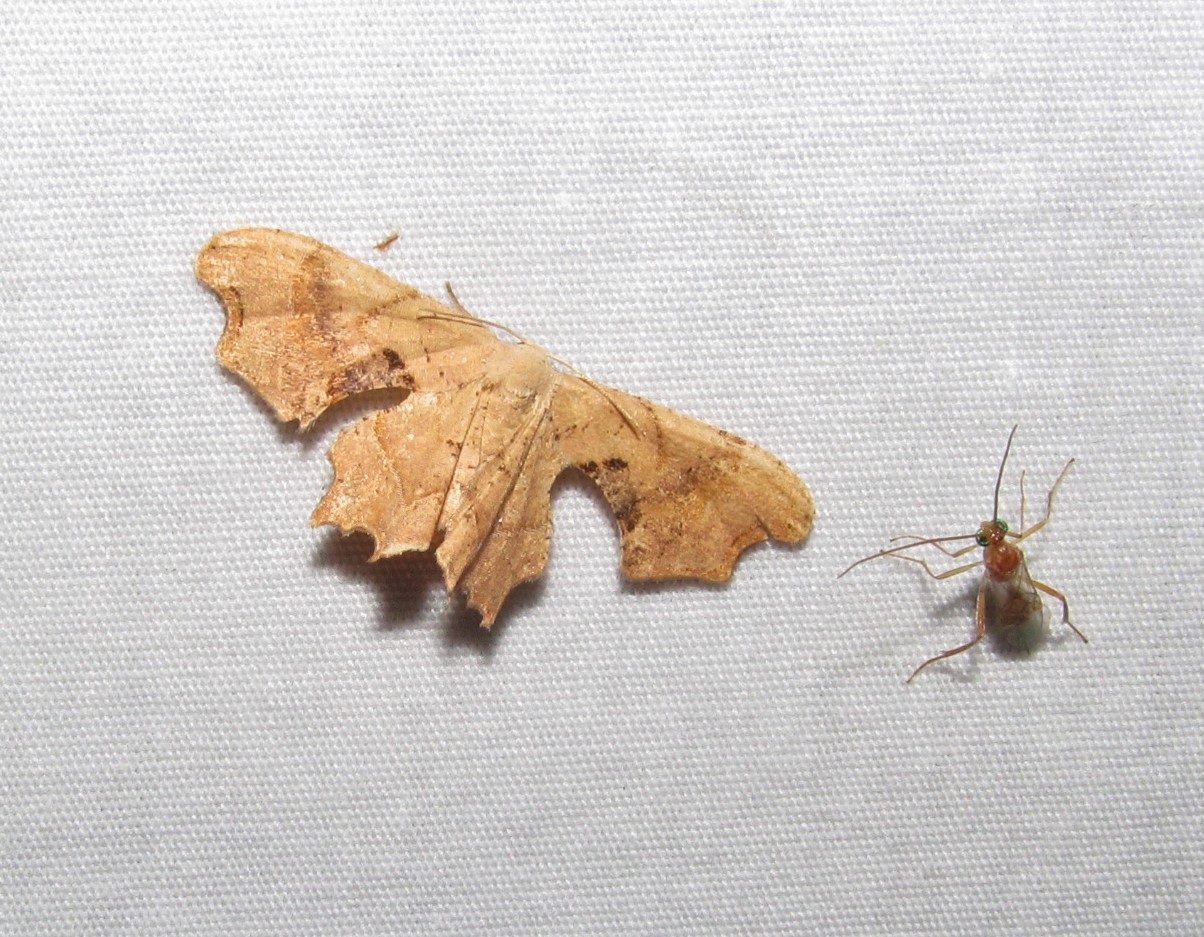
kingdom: Animalia
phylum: Arthropoda
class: Insecta
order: Lepidoptera
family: Uraniidae
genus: Epiplema
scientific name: Epiplema Calledapteryx dryopterata
